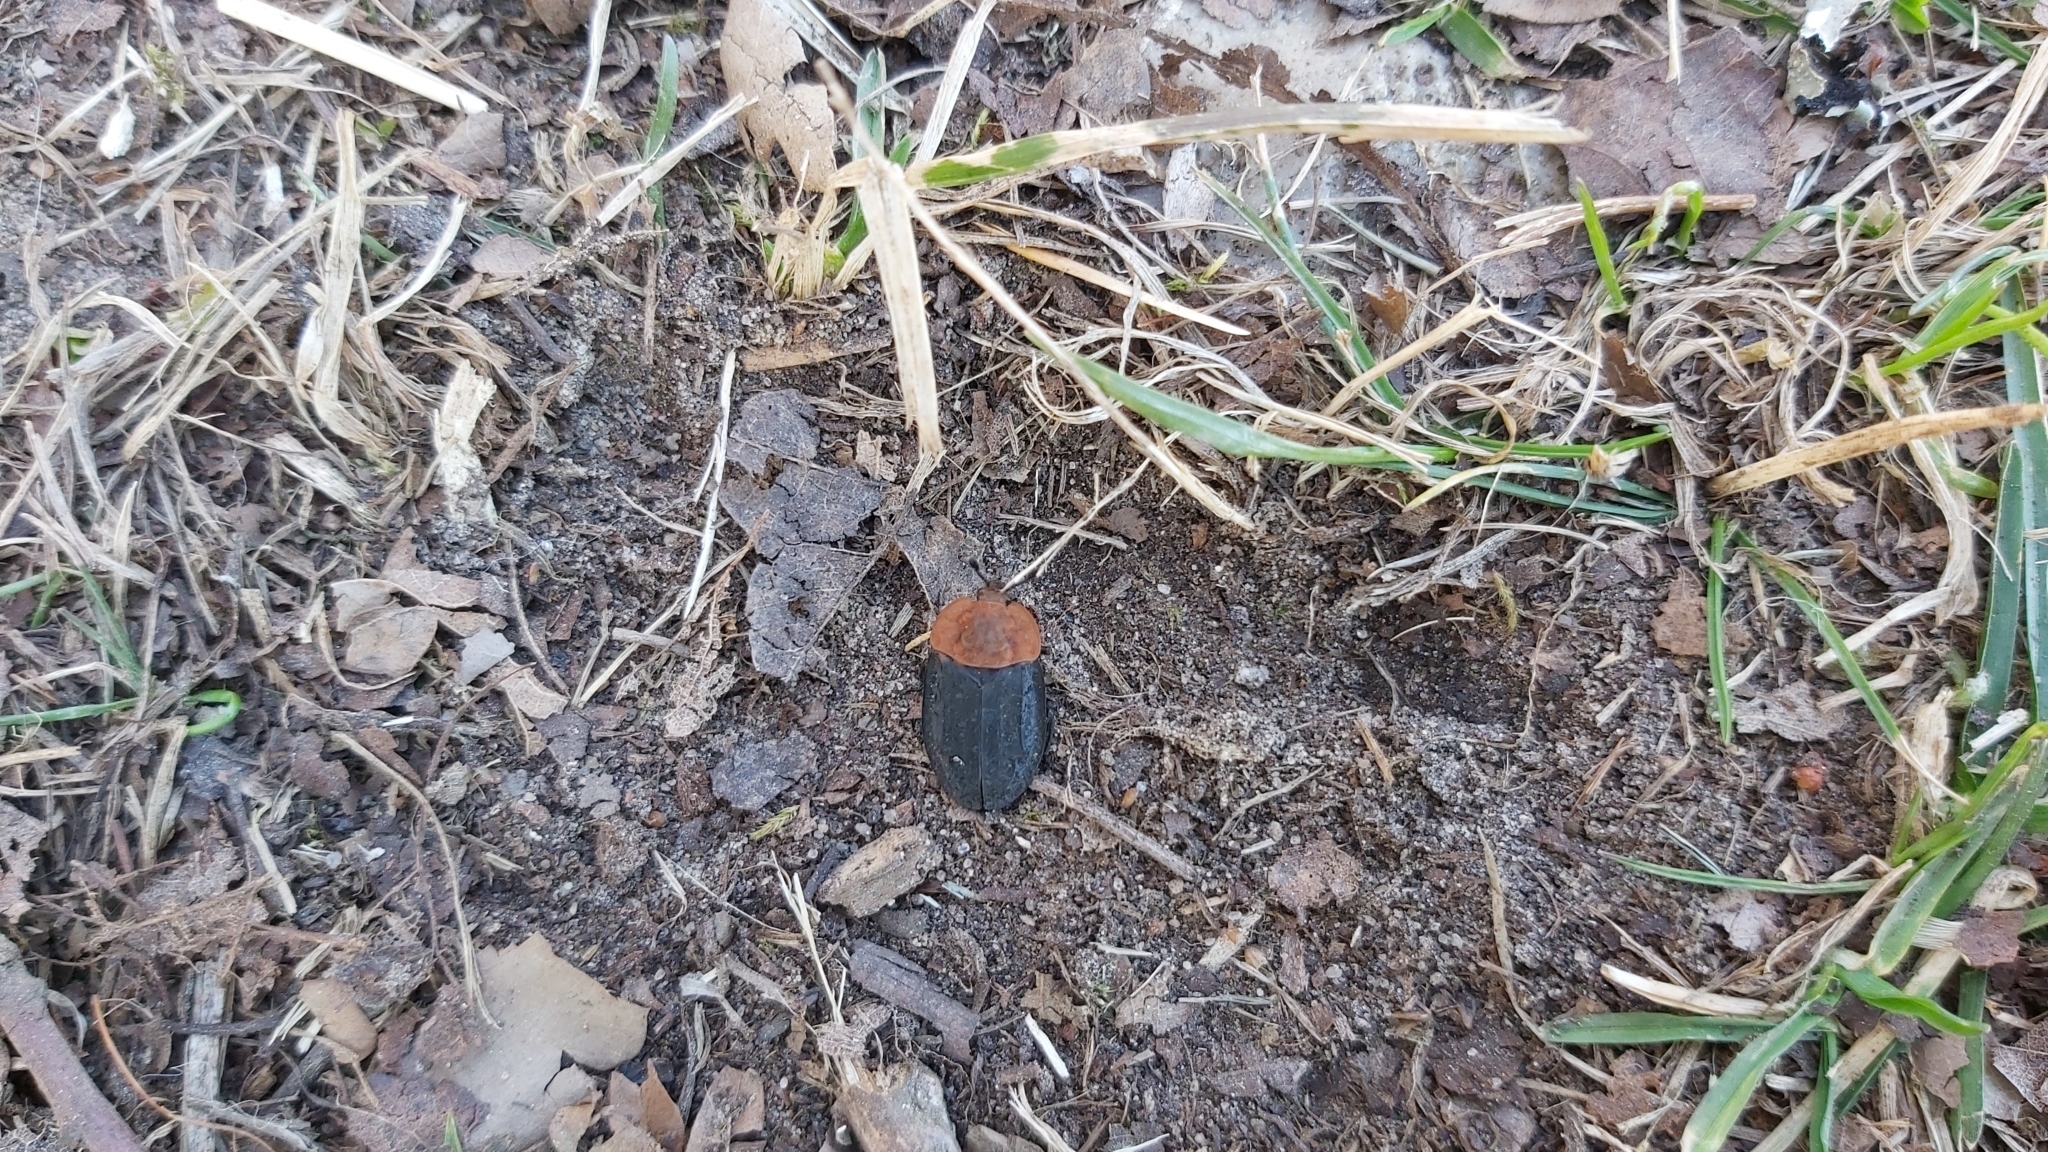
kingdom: Animalia
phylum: Arthropoda
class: Insecta
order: Coleoptera
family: Staphylinidae
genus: Oiceoptoma
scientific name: Oiceoptoma thoracicum
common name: Red-breasted carrion beetle
